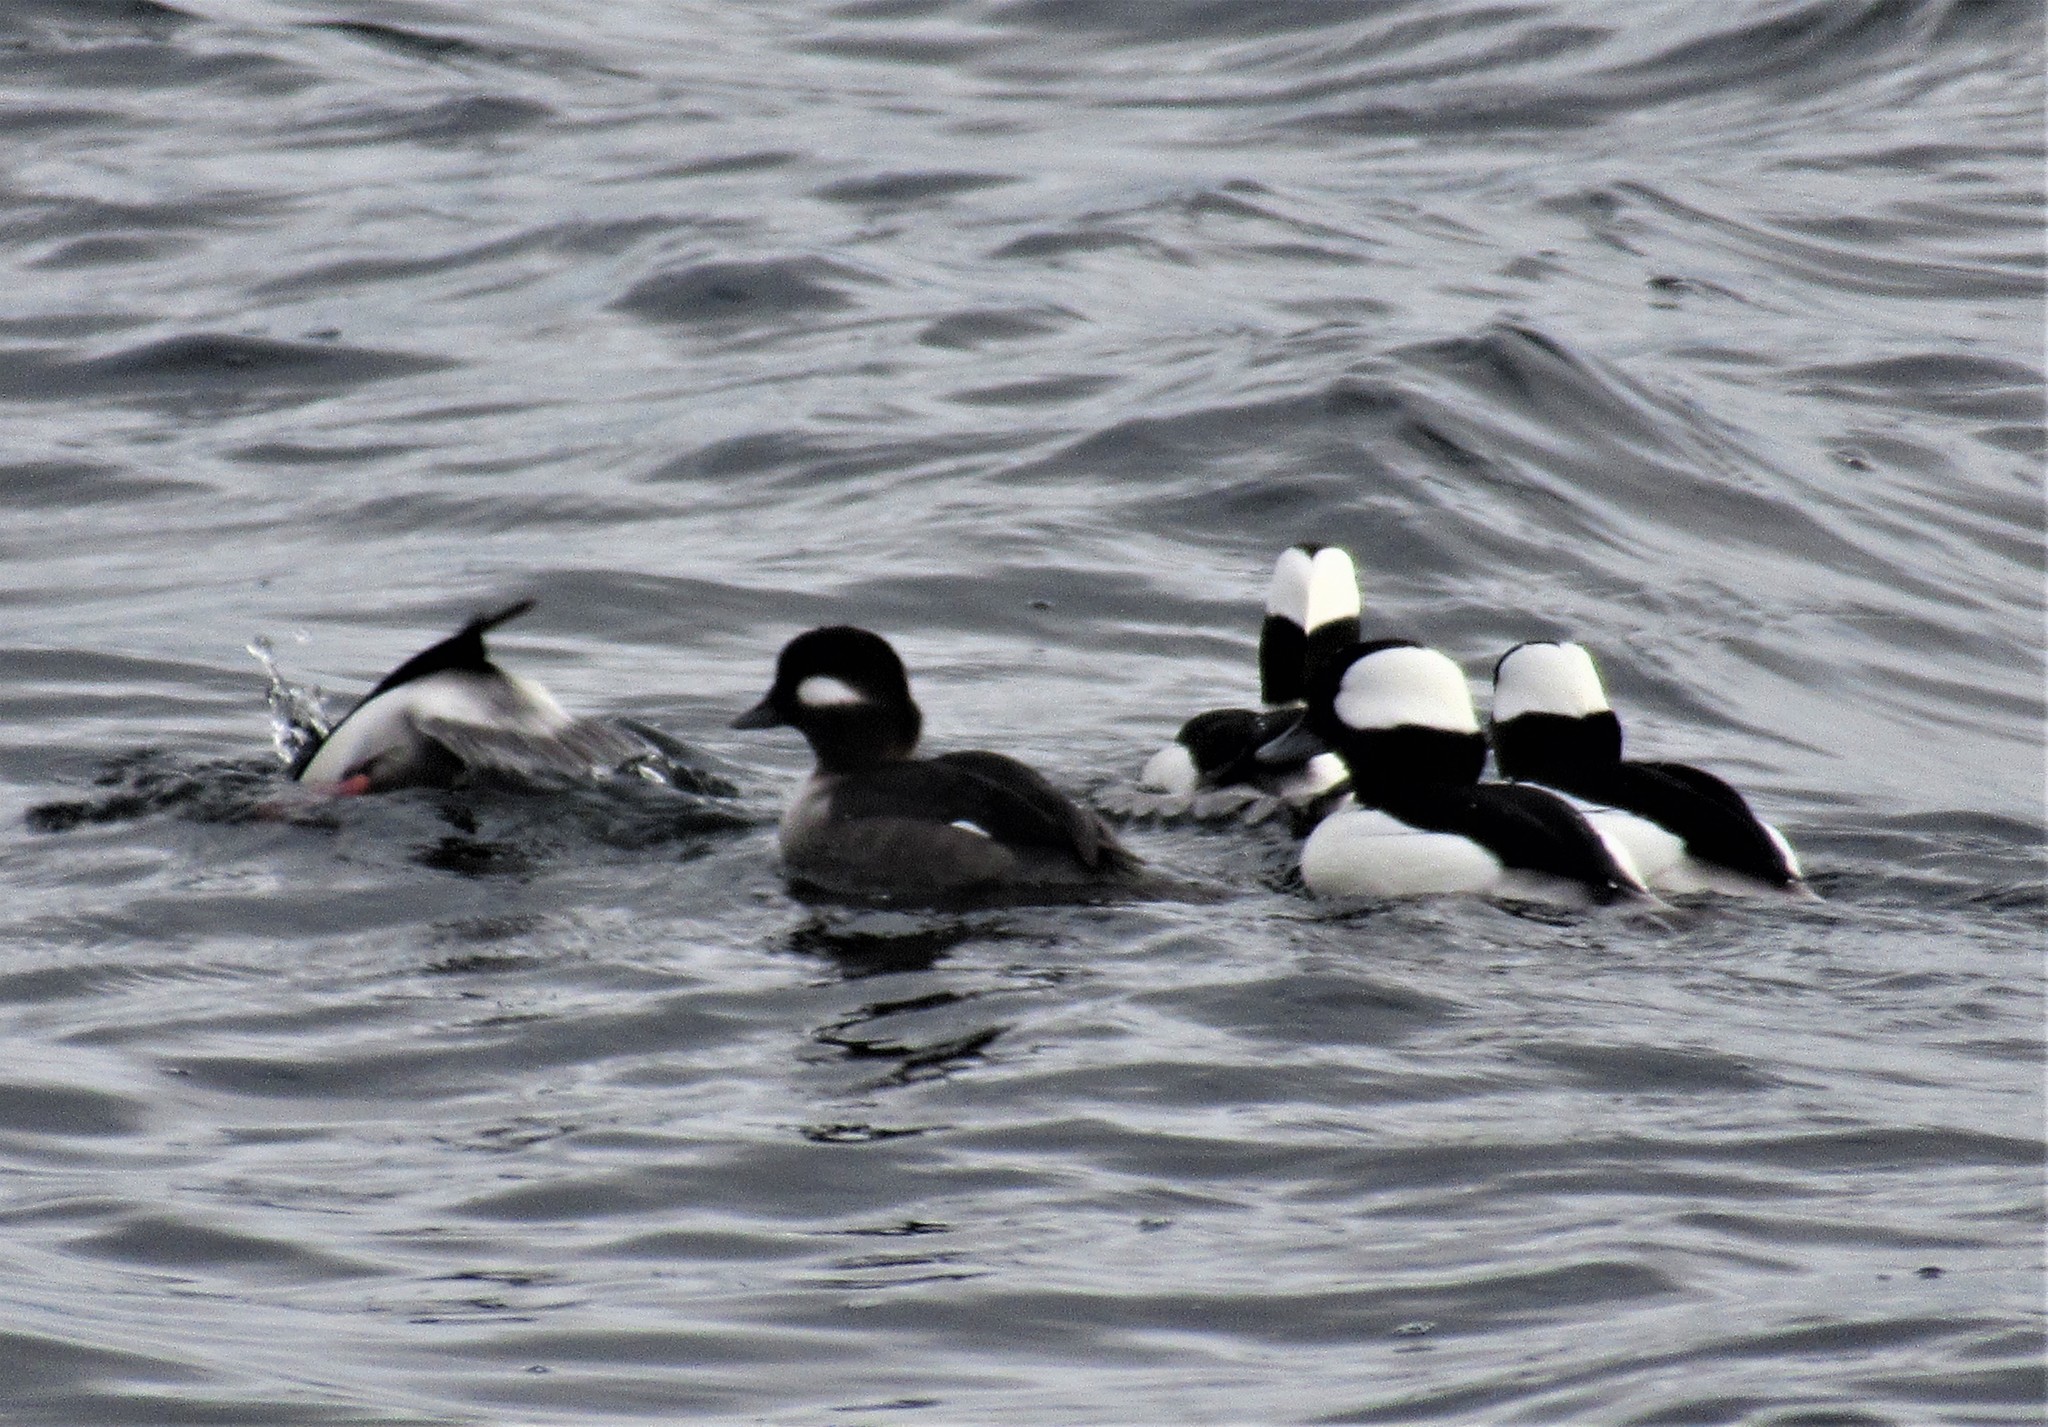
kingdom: Animalia
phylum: Chordata
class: Aves
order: Anseriformes
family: Anatidae
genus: Bucephala
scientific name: Bucephala albeola
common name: Bufflehead
